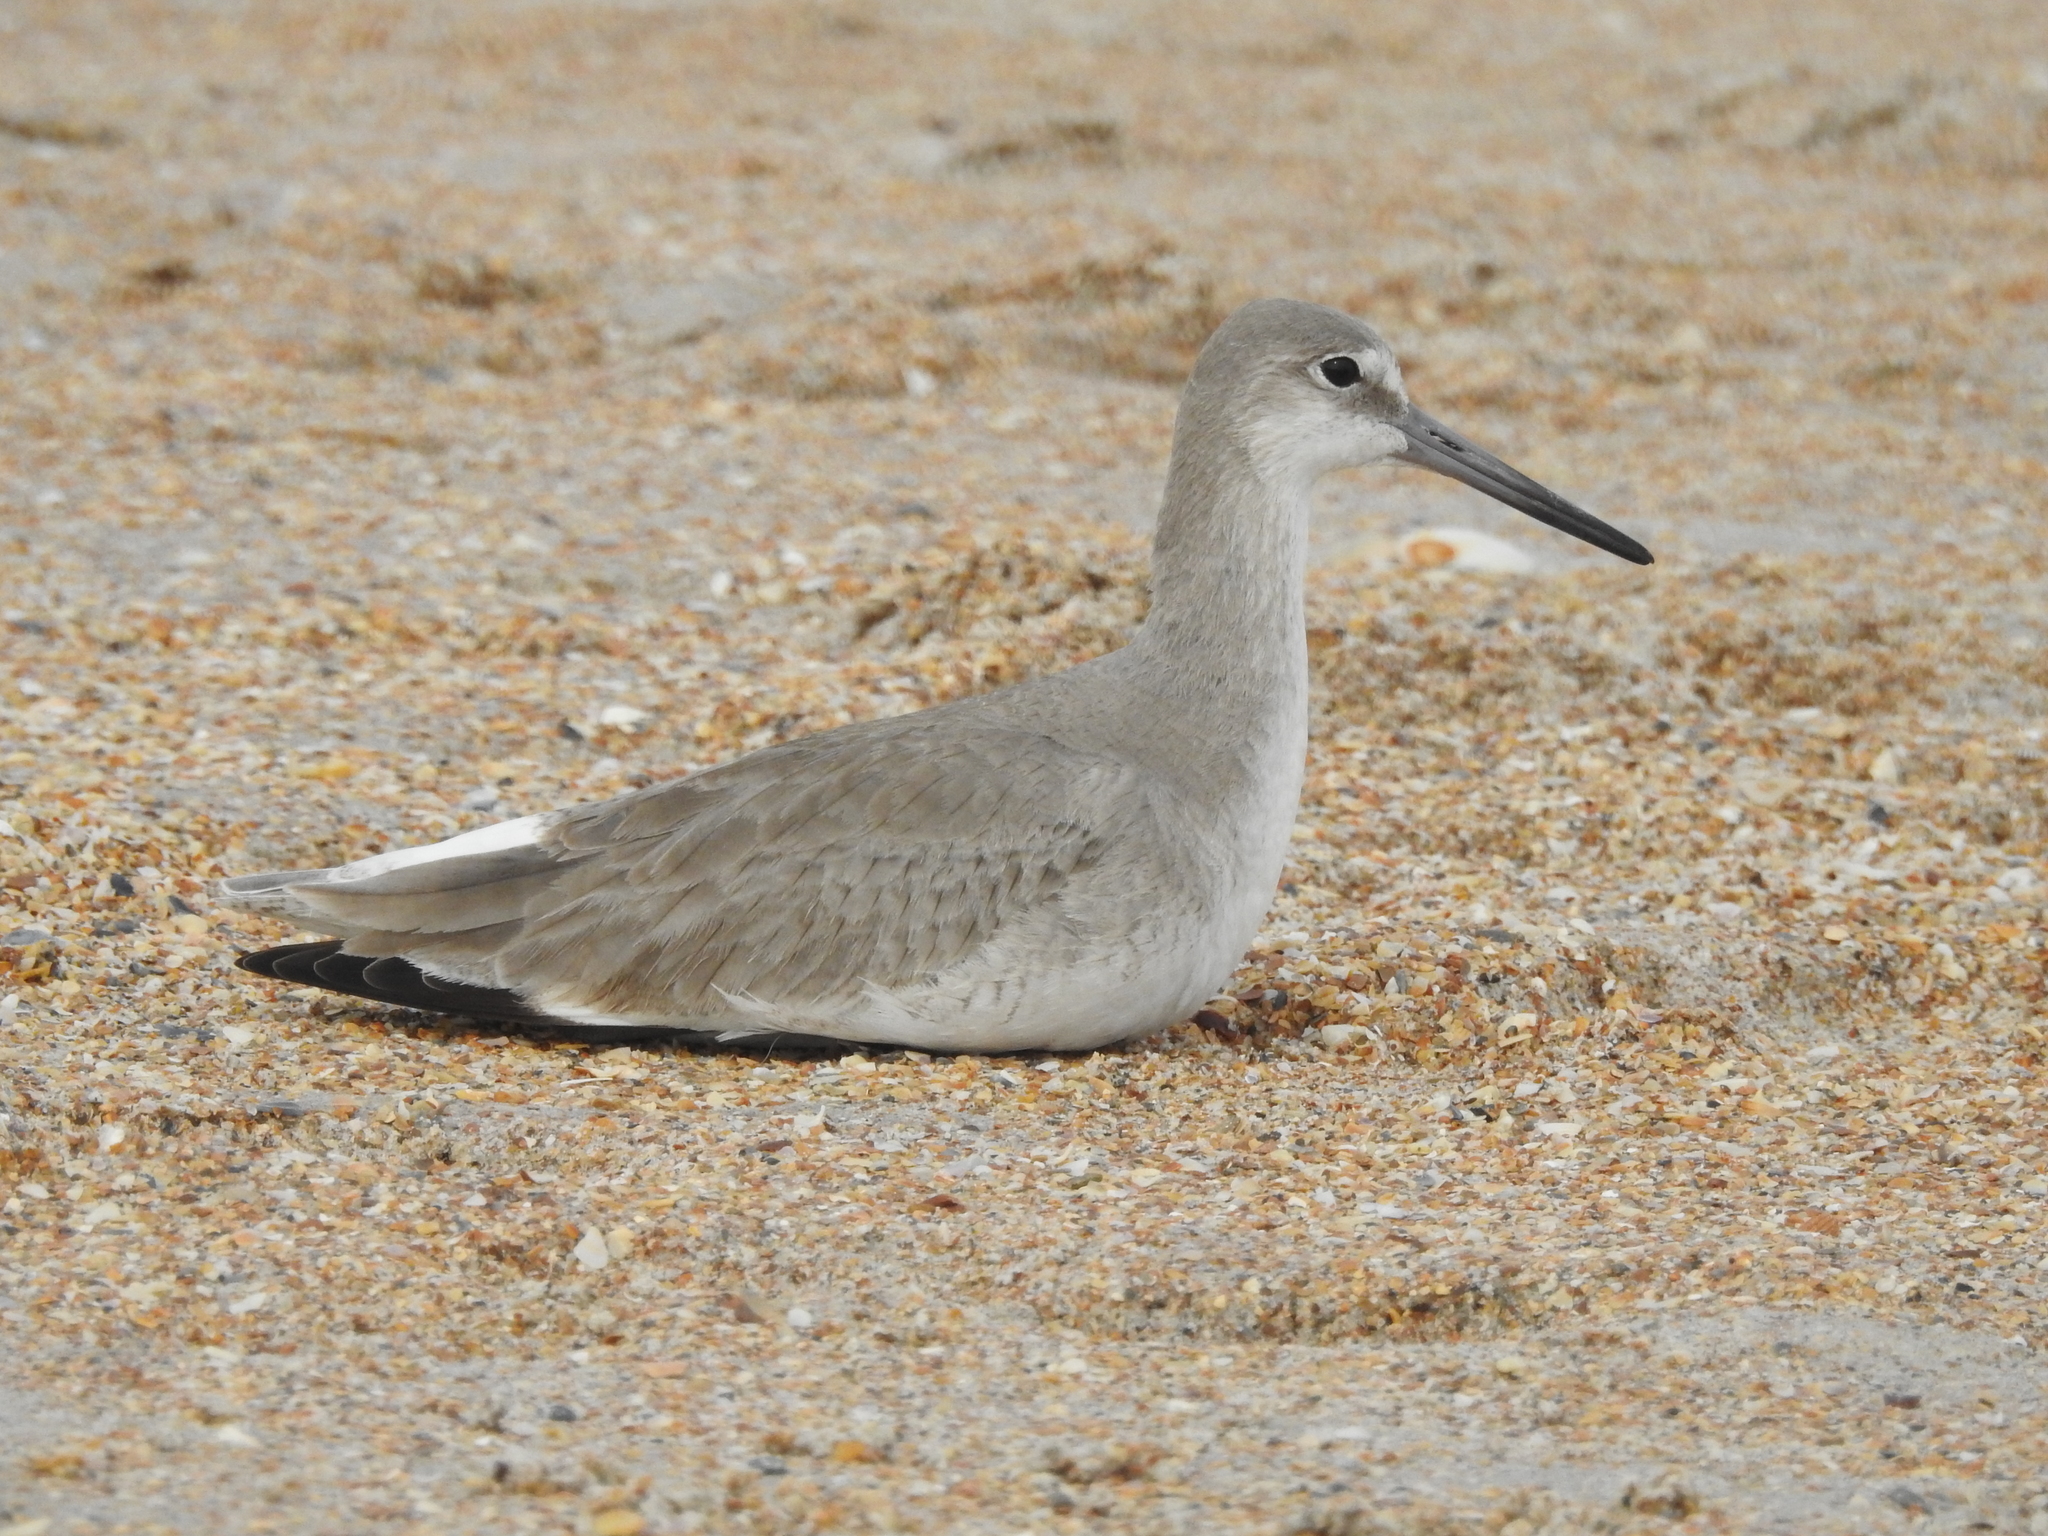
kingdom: Animalia
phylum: Chordata
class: Aves
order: Charadriiformes
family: Scolopacidae
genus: Tringa
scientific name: Tringa semipalmata
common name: Willet
